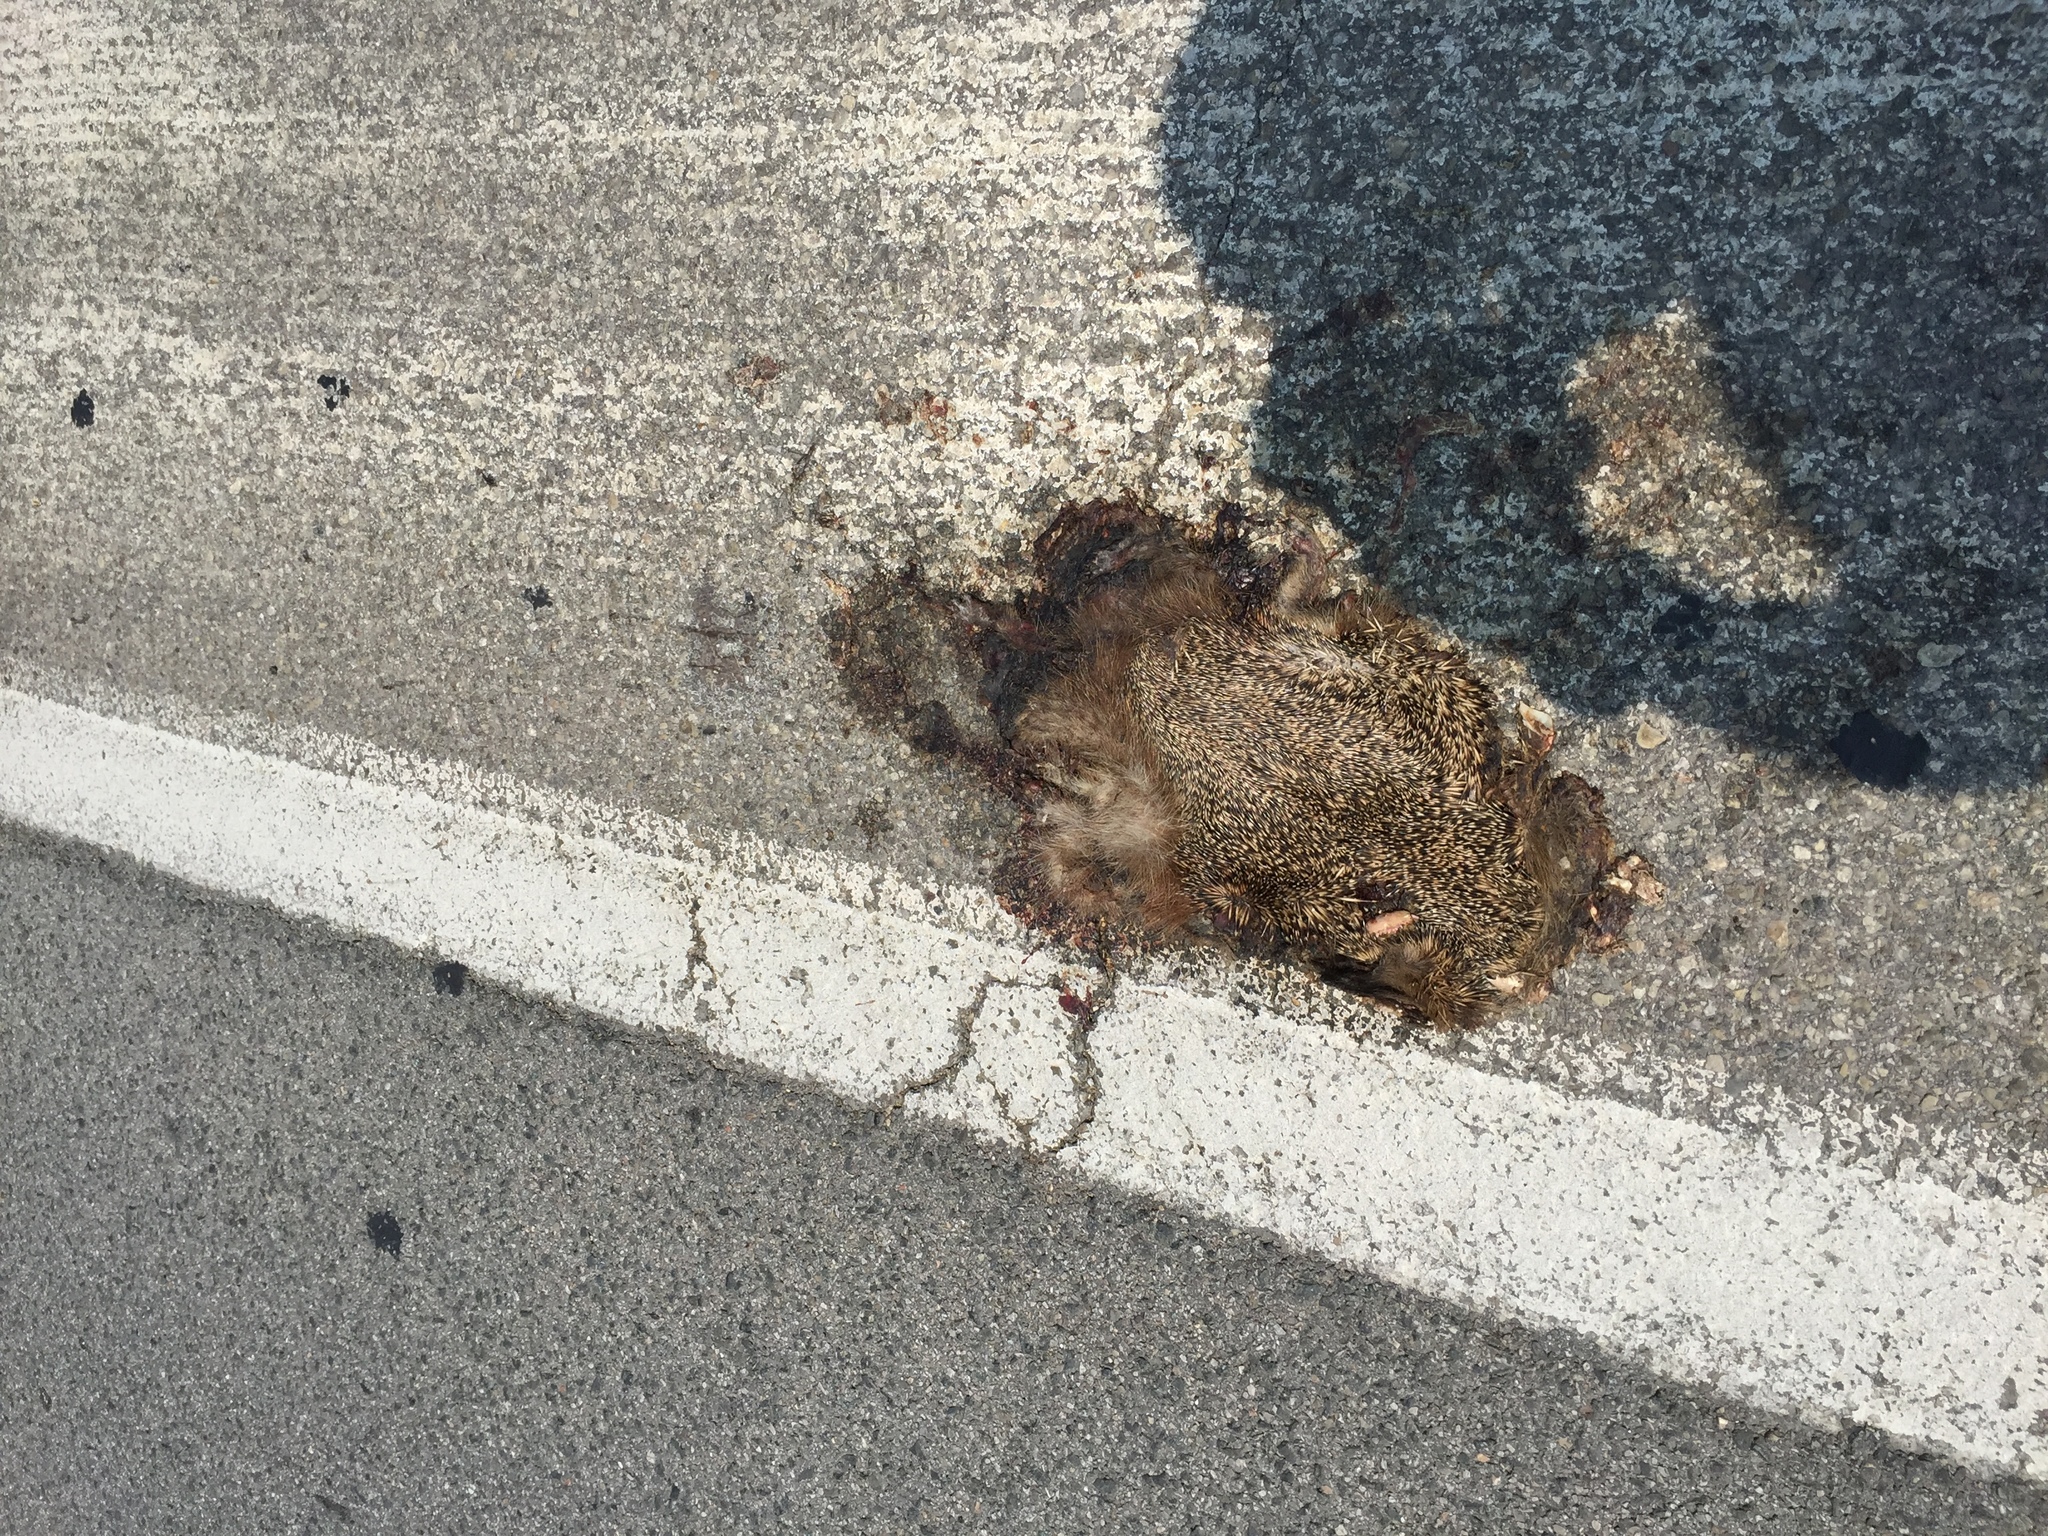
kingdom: Animalia
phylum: Chordata
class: Mammalia
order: Erinaceomorpha
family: Erinaceidae
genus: Erinaceus
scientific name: Erinaceus europaeus
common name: West european hedgehog
